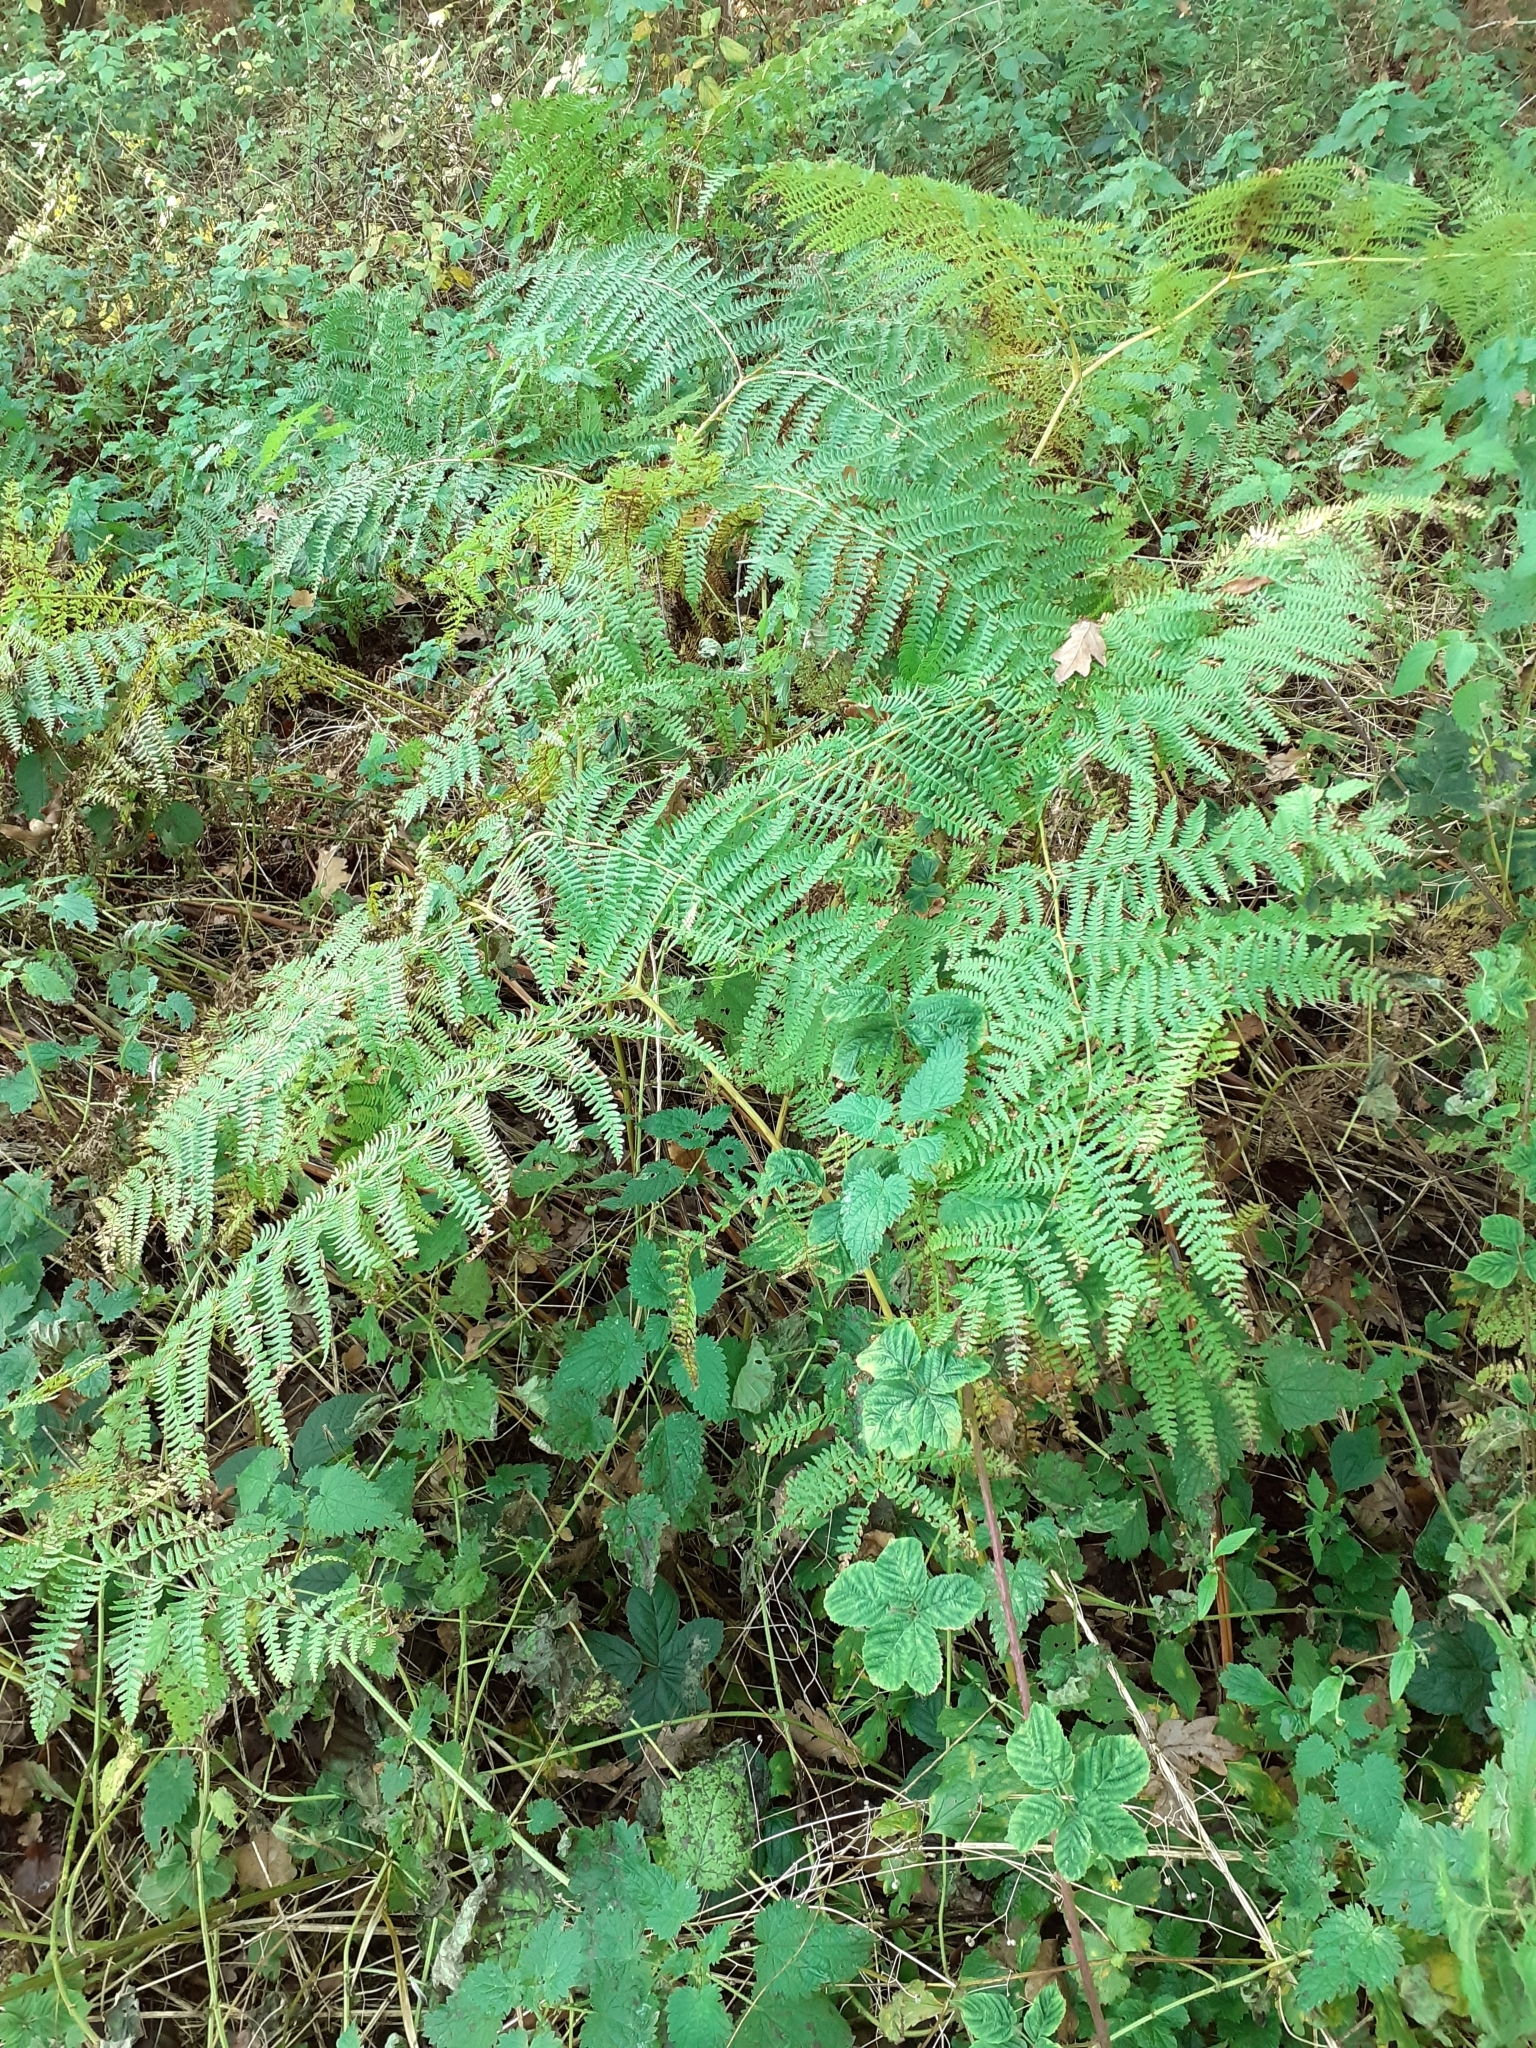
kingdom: Plantae
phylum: Tracheophyta
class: Polypodiopsida
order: Polypodiales
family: Dennstaedtiaceae
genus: Pteridium
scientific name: Pteridium aquilinum
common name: Bracken
